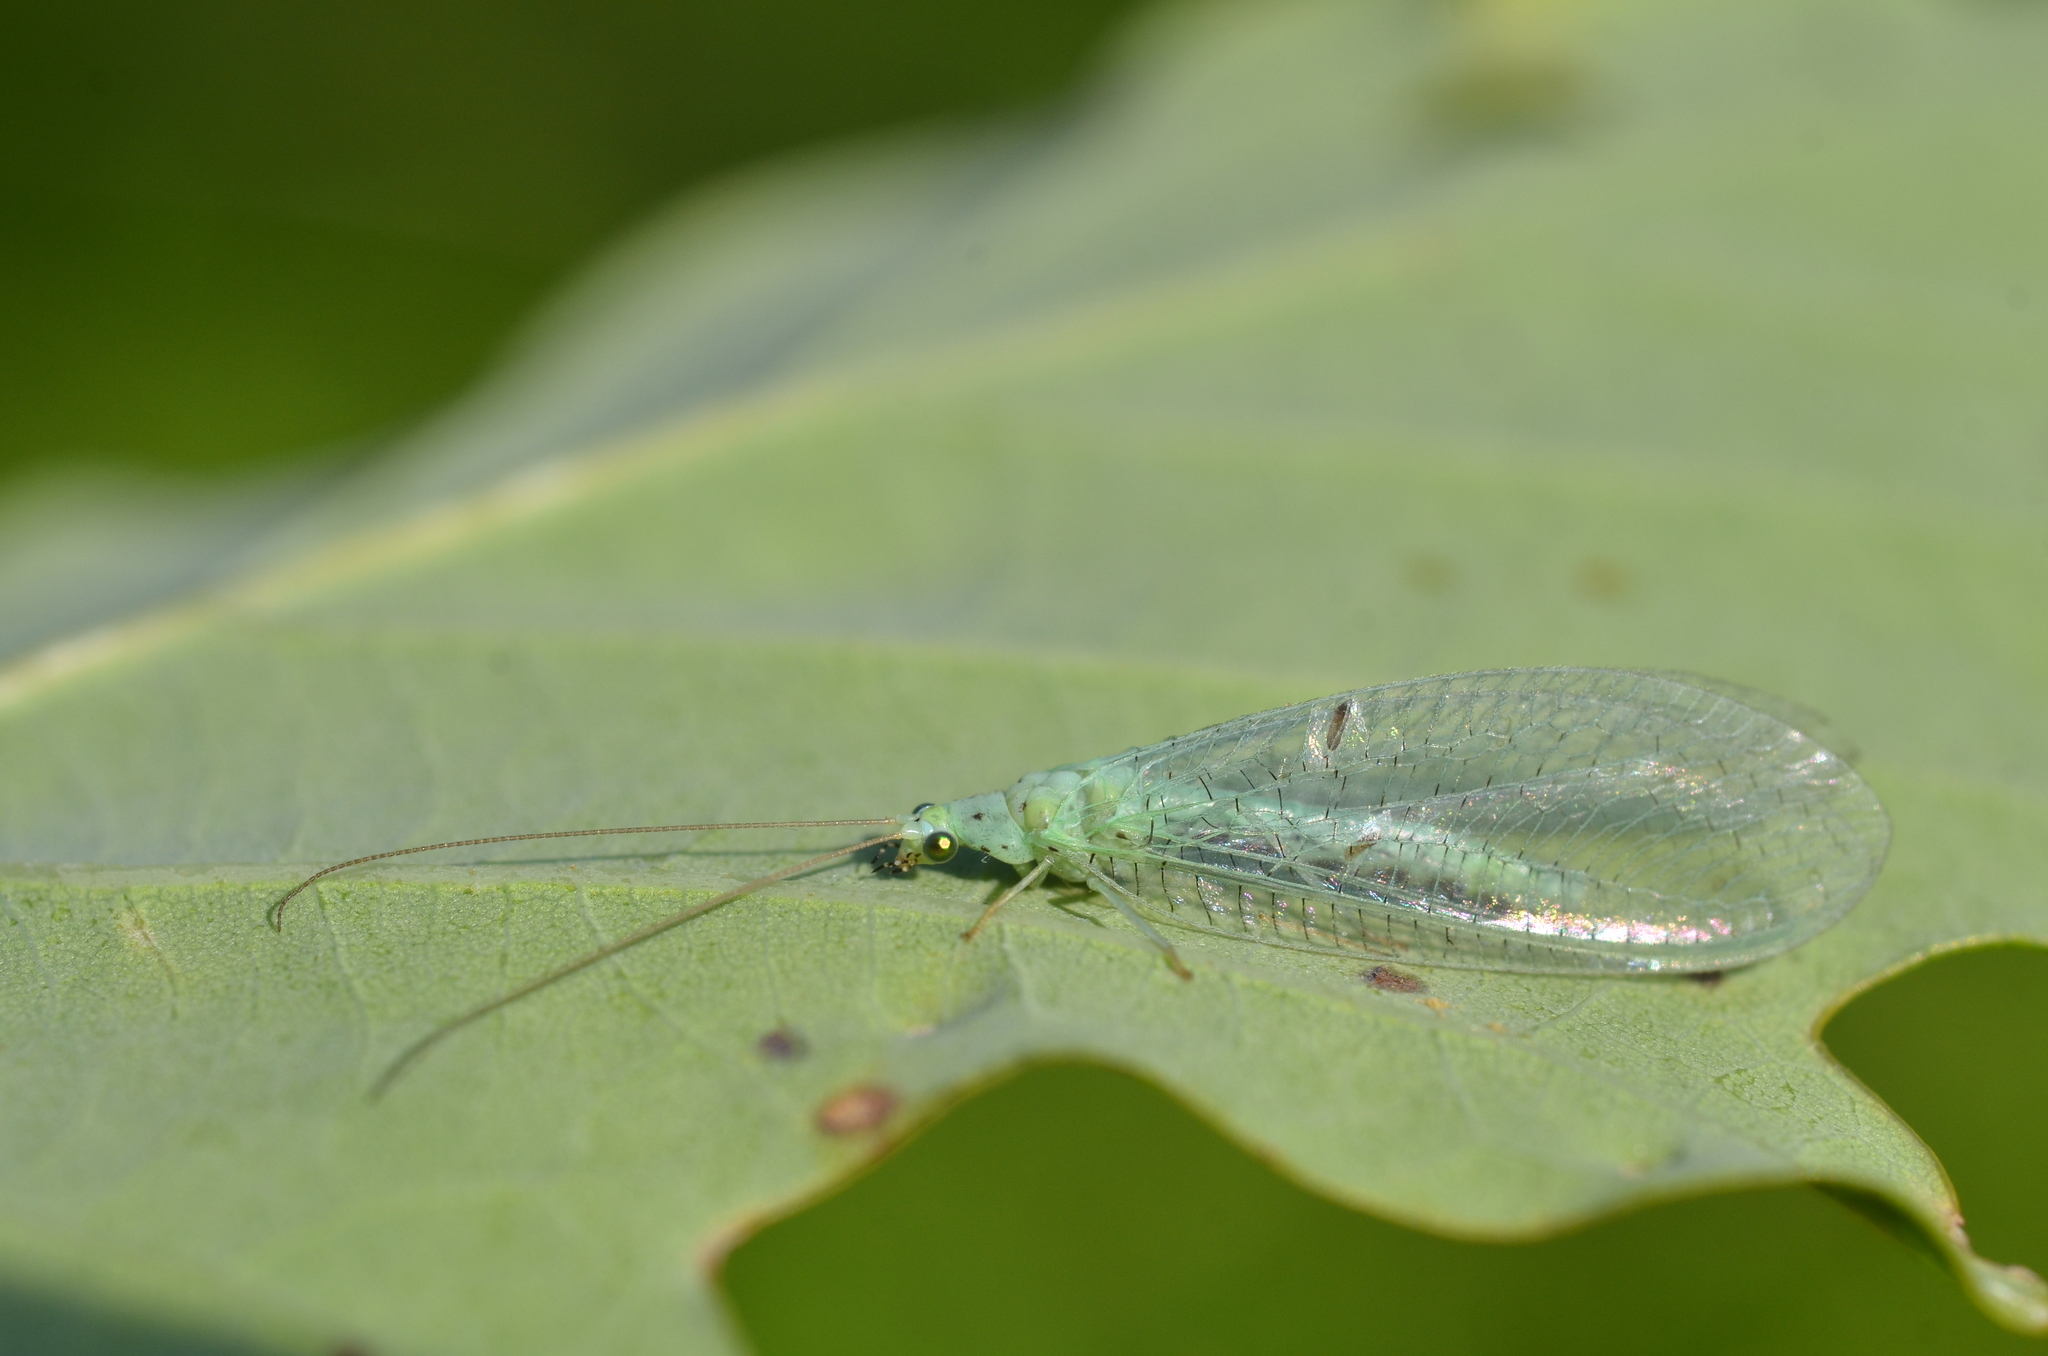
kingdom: Animalia
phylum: Arthropoda
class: Insecta
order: Neuroptera
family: Chrysopidae
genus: Pseudomallada
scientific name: Pseudomallada ventralis
